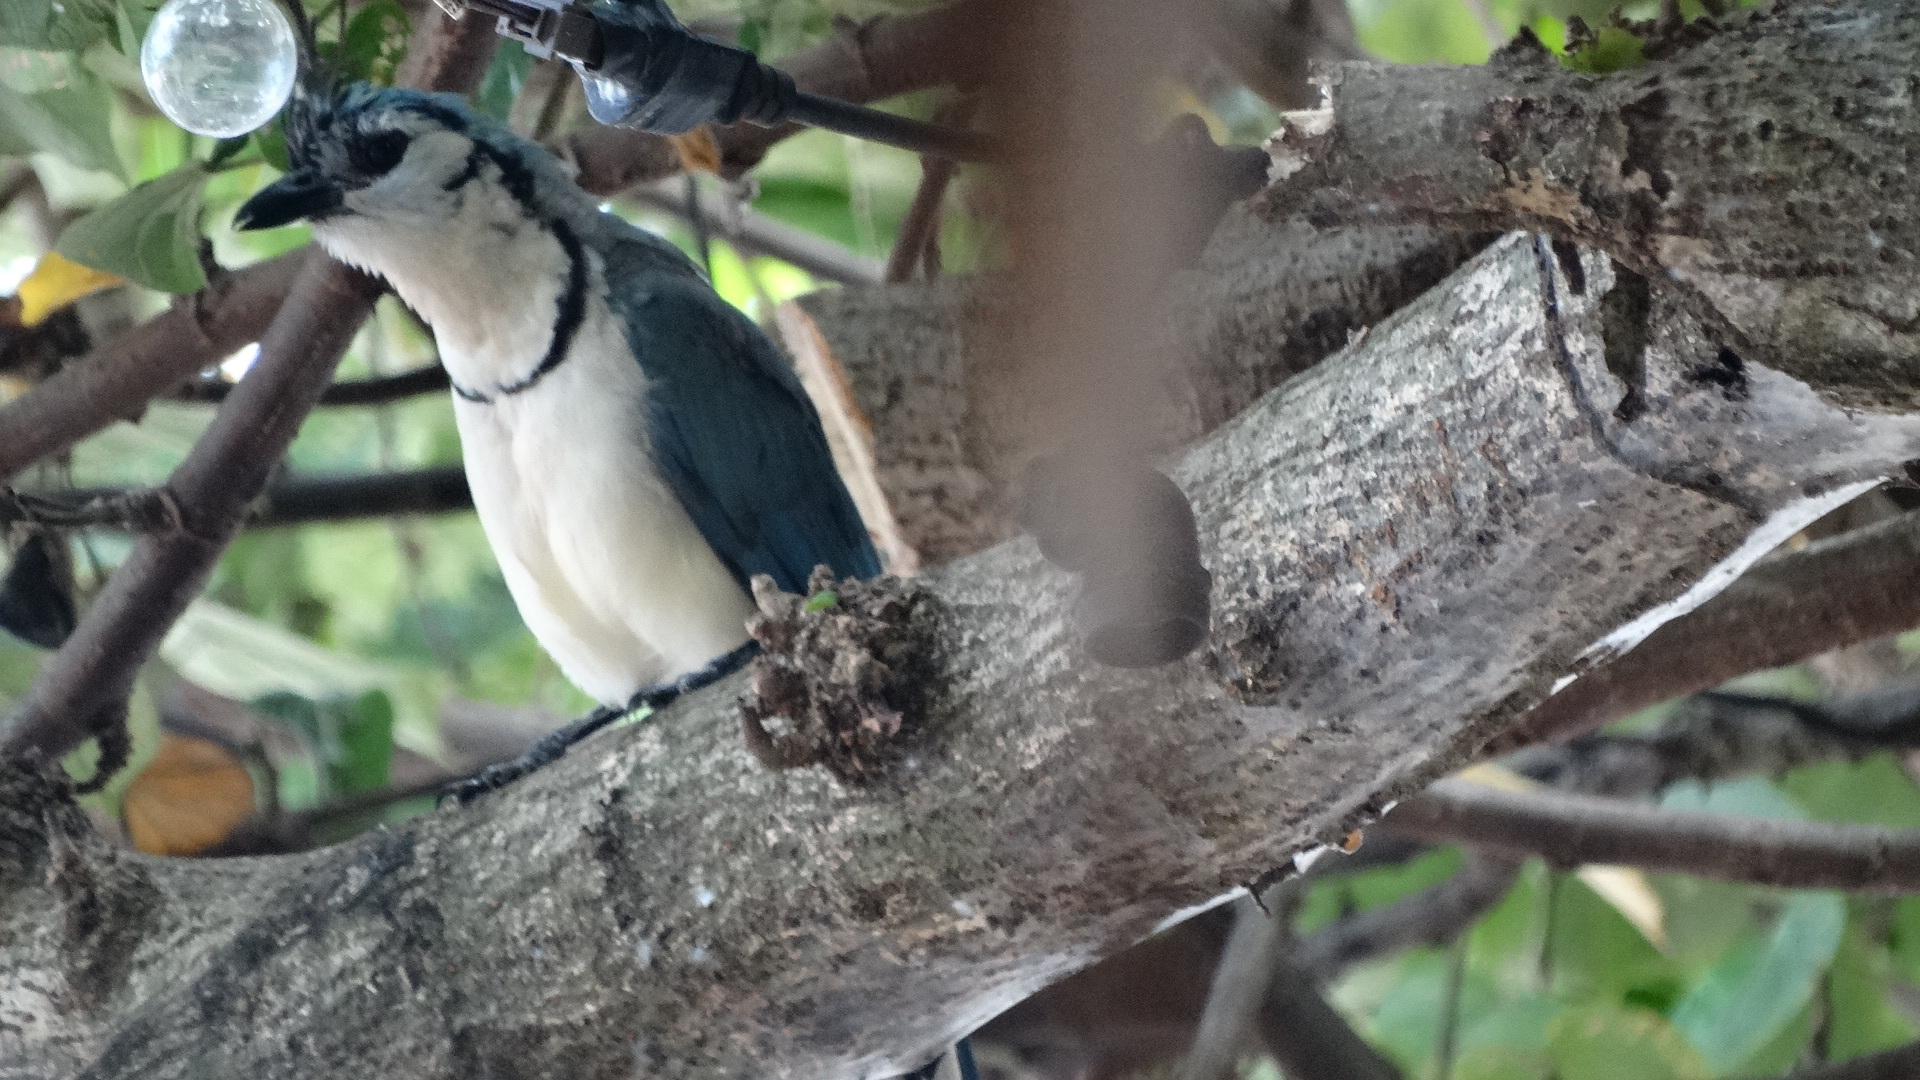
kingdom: Animalia
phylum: Chordata
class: Aves
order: Passeriformes
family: Corvidae
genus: Calocitta
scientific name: Calocitta formosa
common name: White-throated magpie-jay
